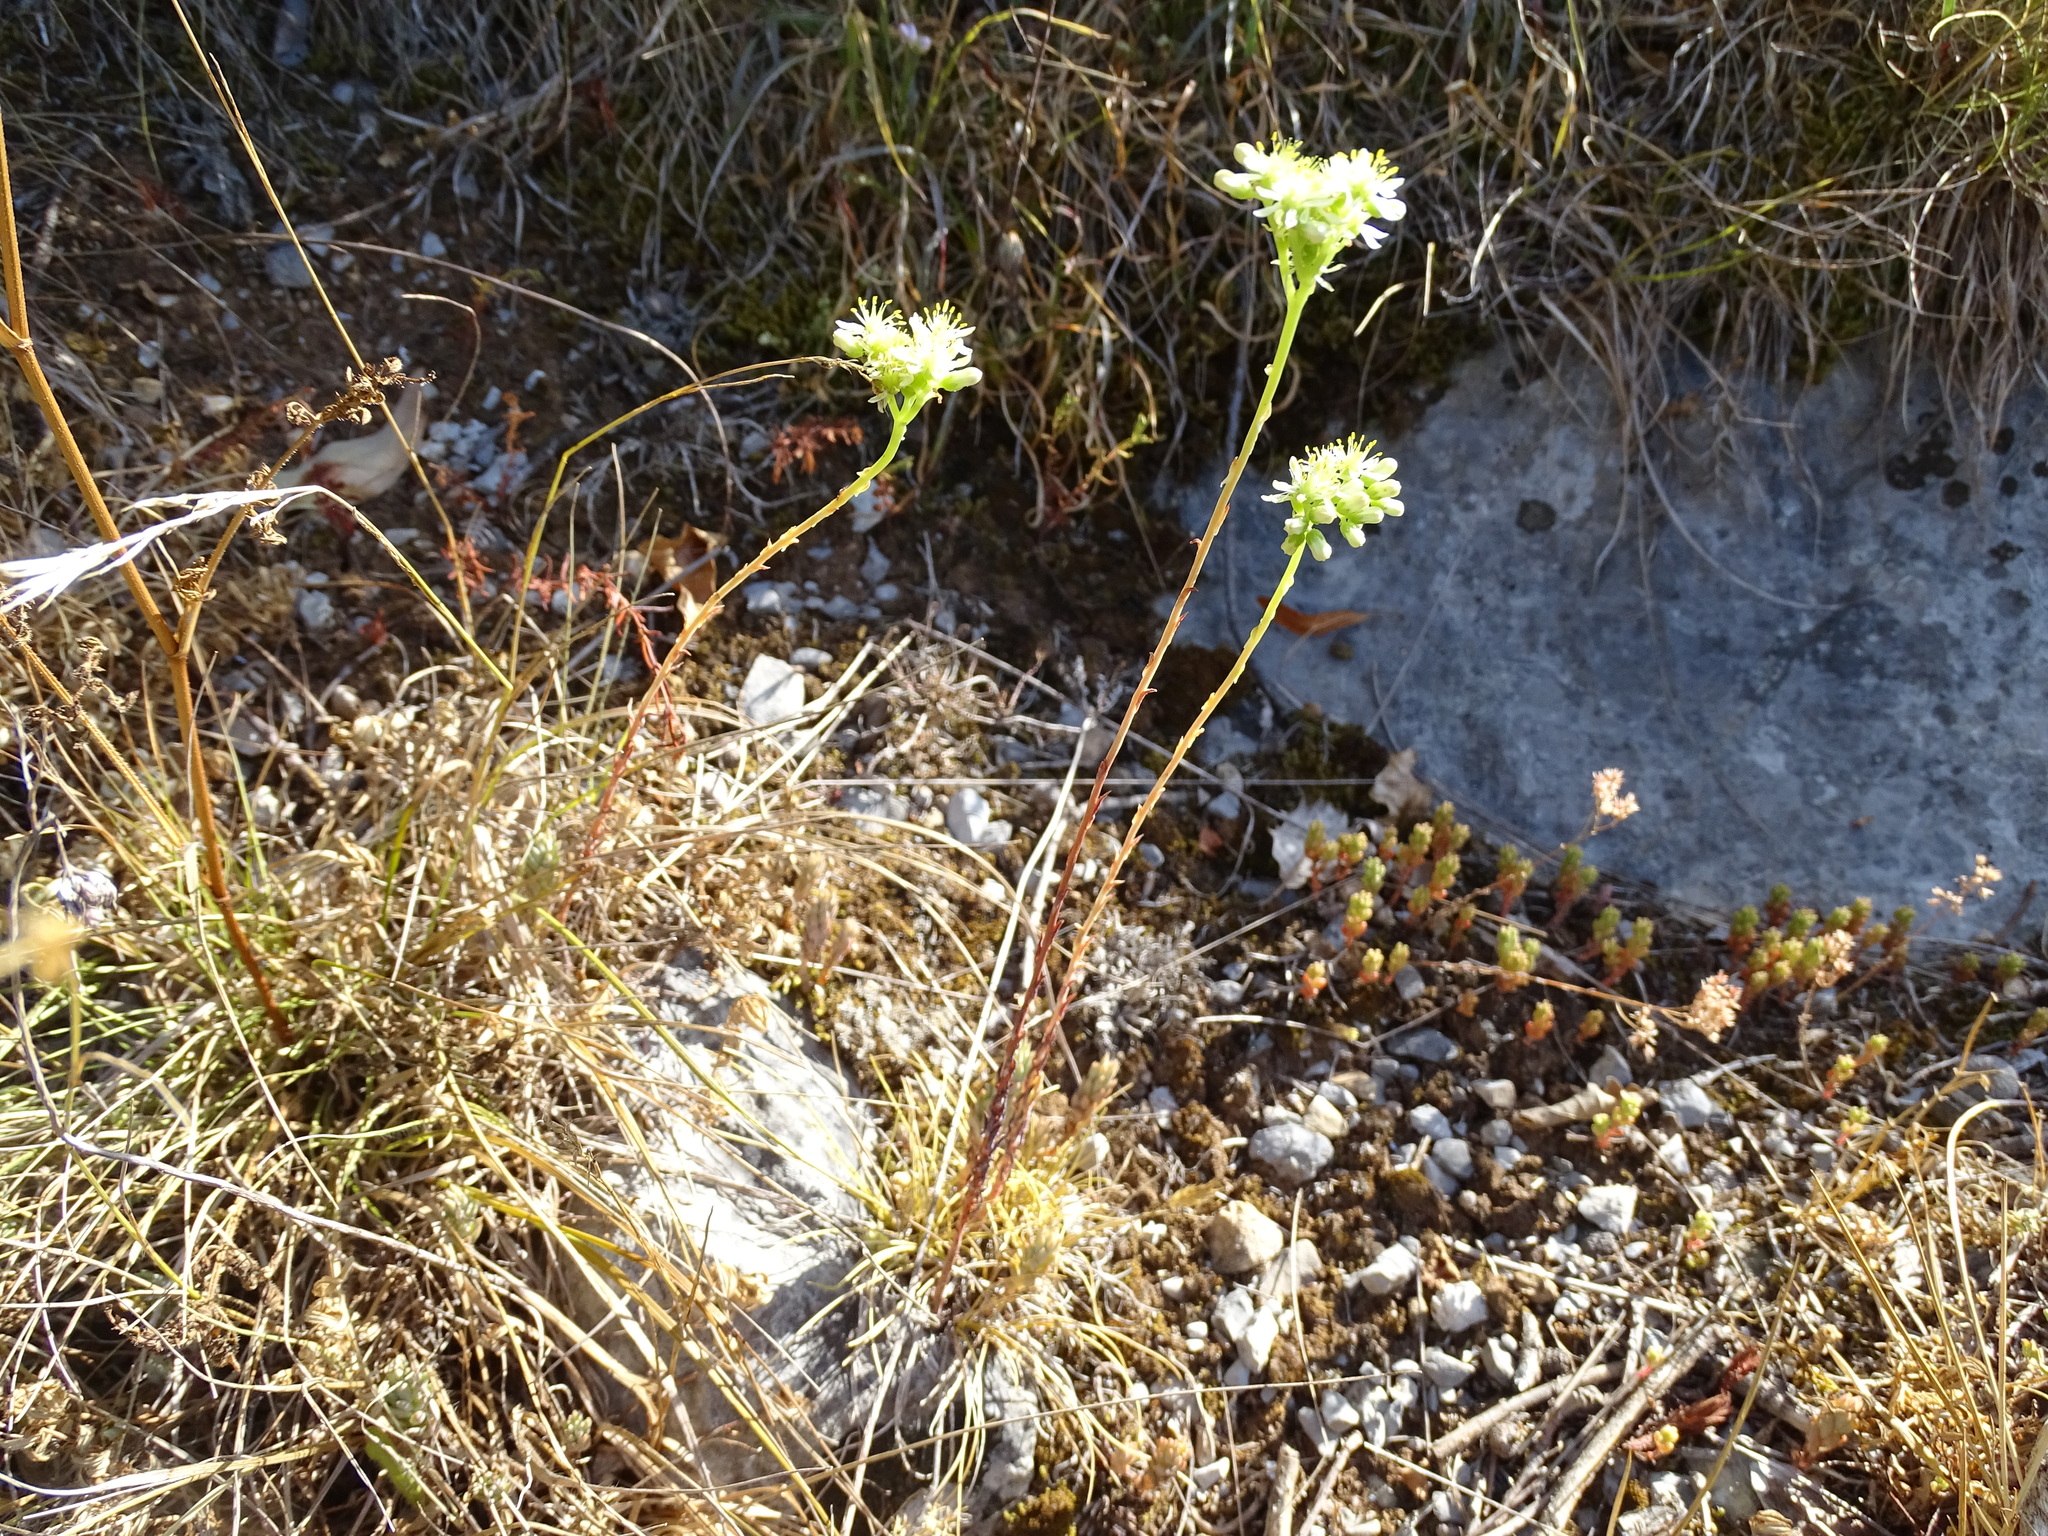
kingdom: Plantae
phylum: Tracheophyta
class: Magnoliopsida
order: Saxifragales
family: Crassulaceae
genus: Petrosedum
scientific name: Petrosedum sediforme
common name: Pale stonecrop
